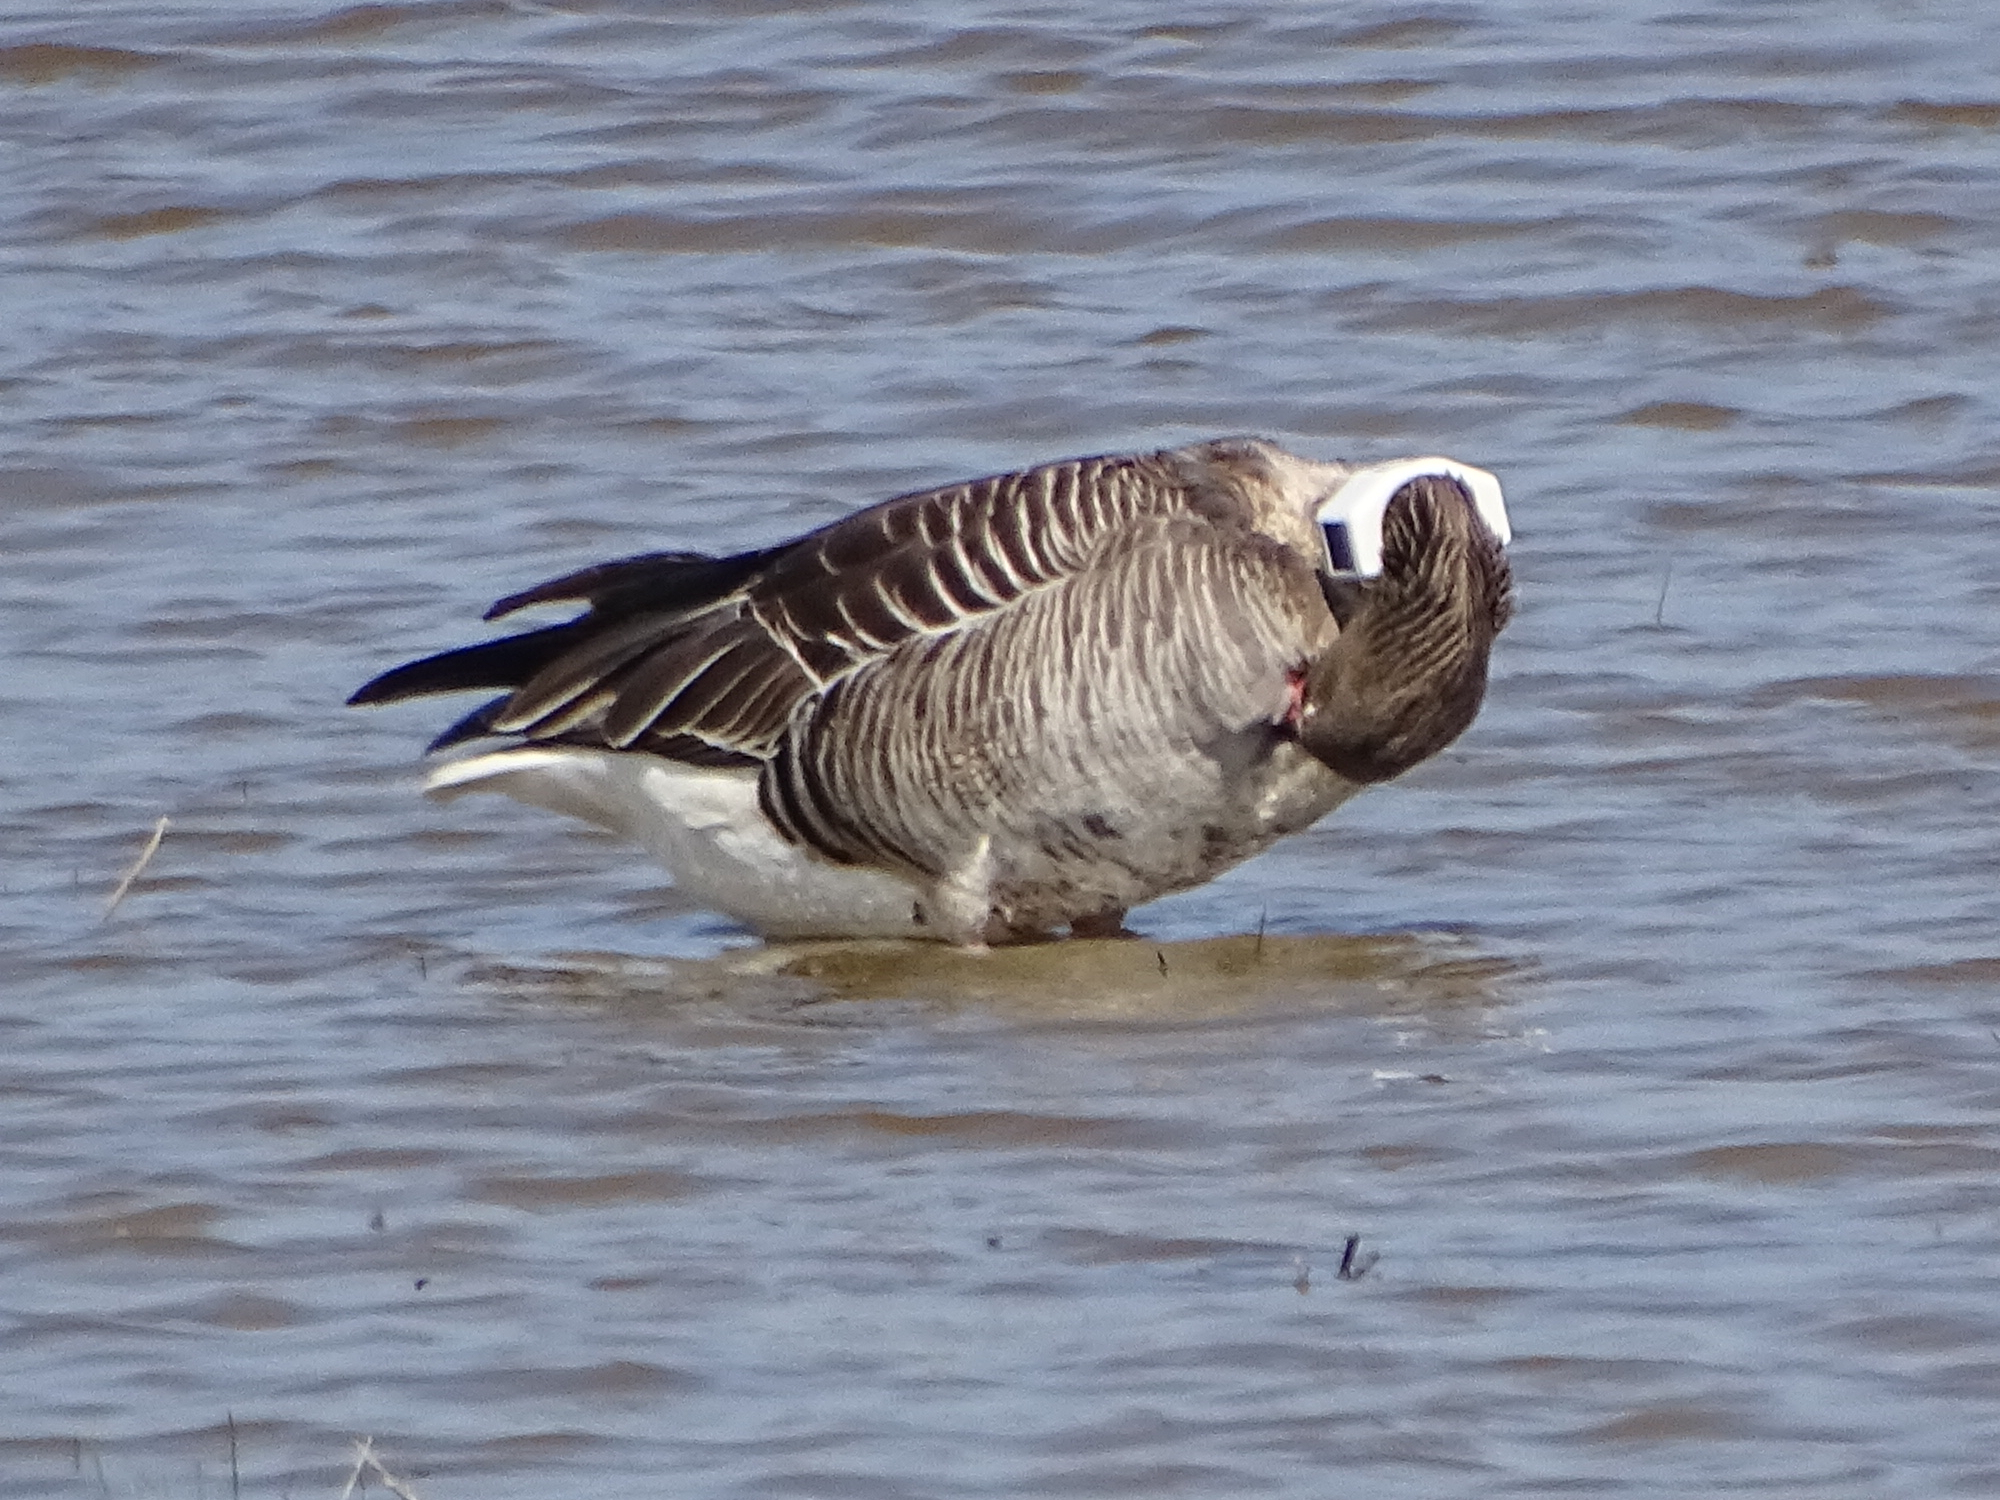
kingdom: Animalia
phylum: Chordata
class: Aves
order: Anseriformes
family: Anatidae
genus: Anser
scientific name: Anser anser
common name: Greylag goose
